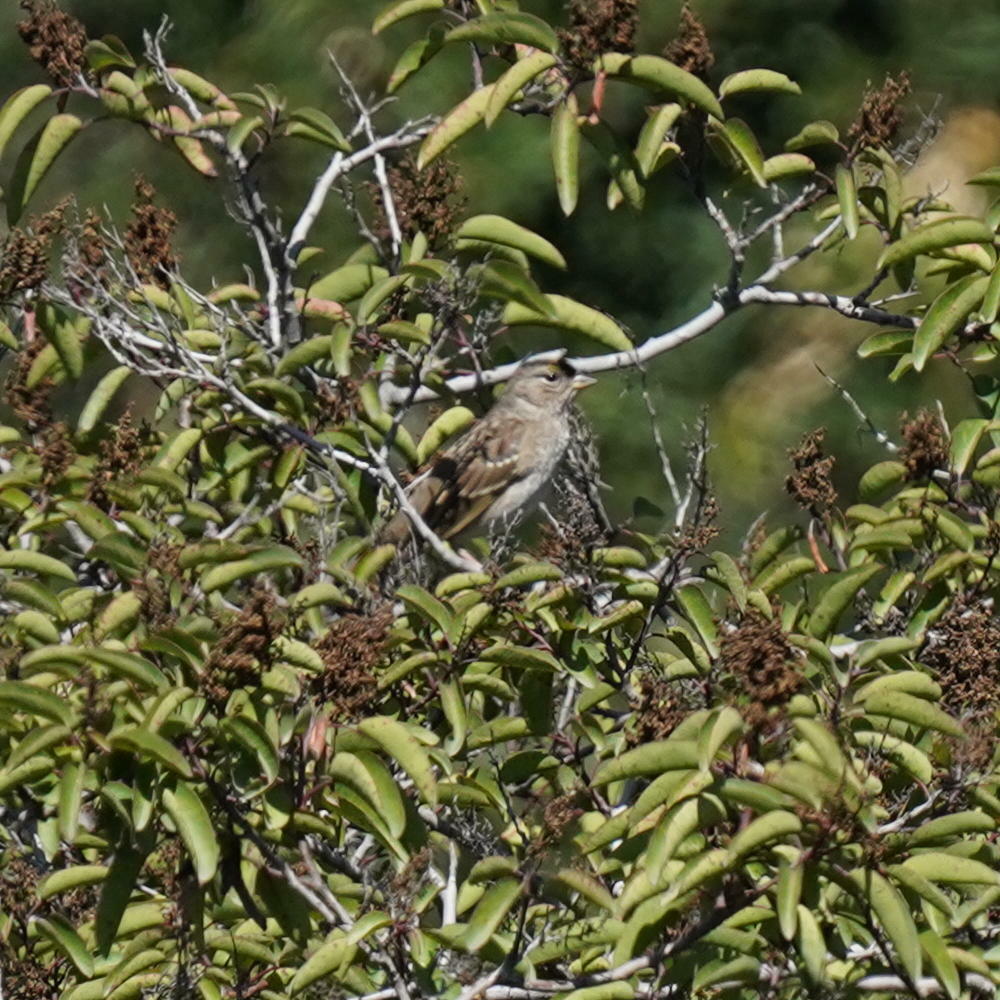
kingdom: Animalia
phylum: Chordata
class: Aves
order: Passeriformes
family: Passerellidae
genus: Zonotrichia
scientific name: Zonotrichia atricapilla
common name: Golden-crowned sparrow
